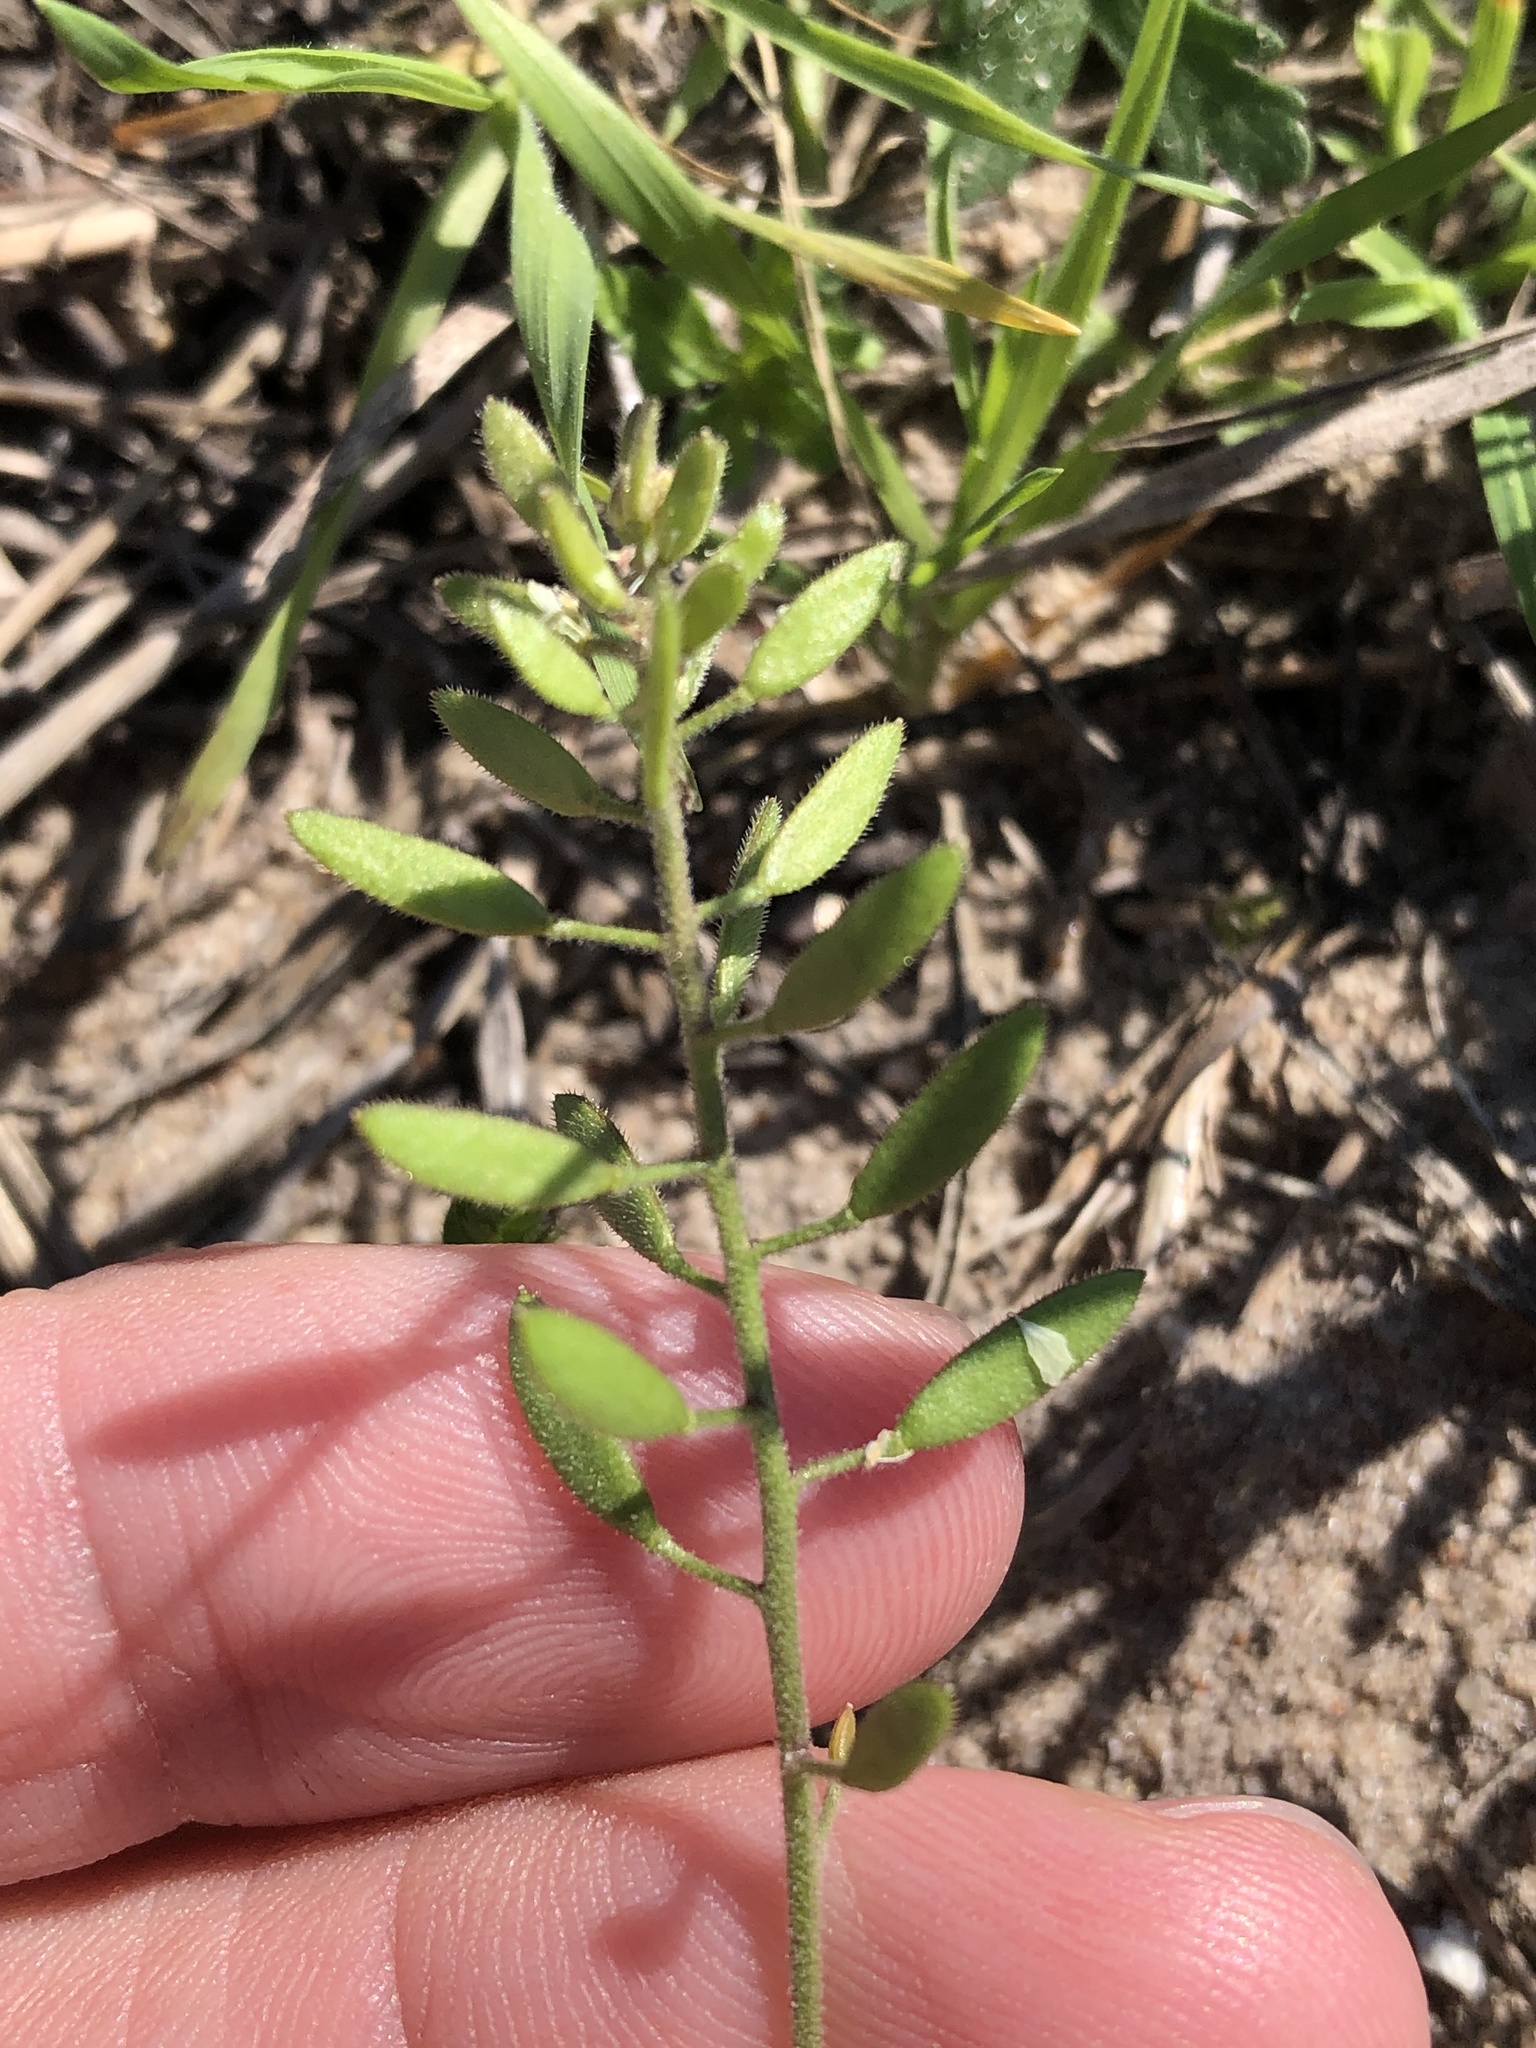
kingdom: Plantae
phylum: Tracheophyta
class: Magnoliopsida
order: Brassicales
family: Brassicaceae
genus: Tomostima
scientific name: Tomostima cuneifolia
